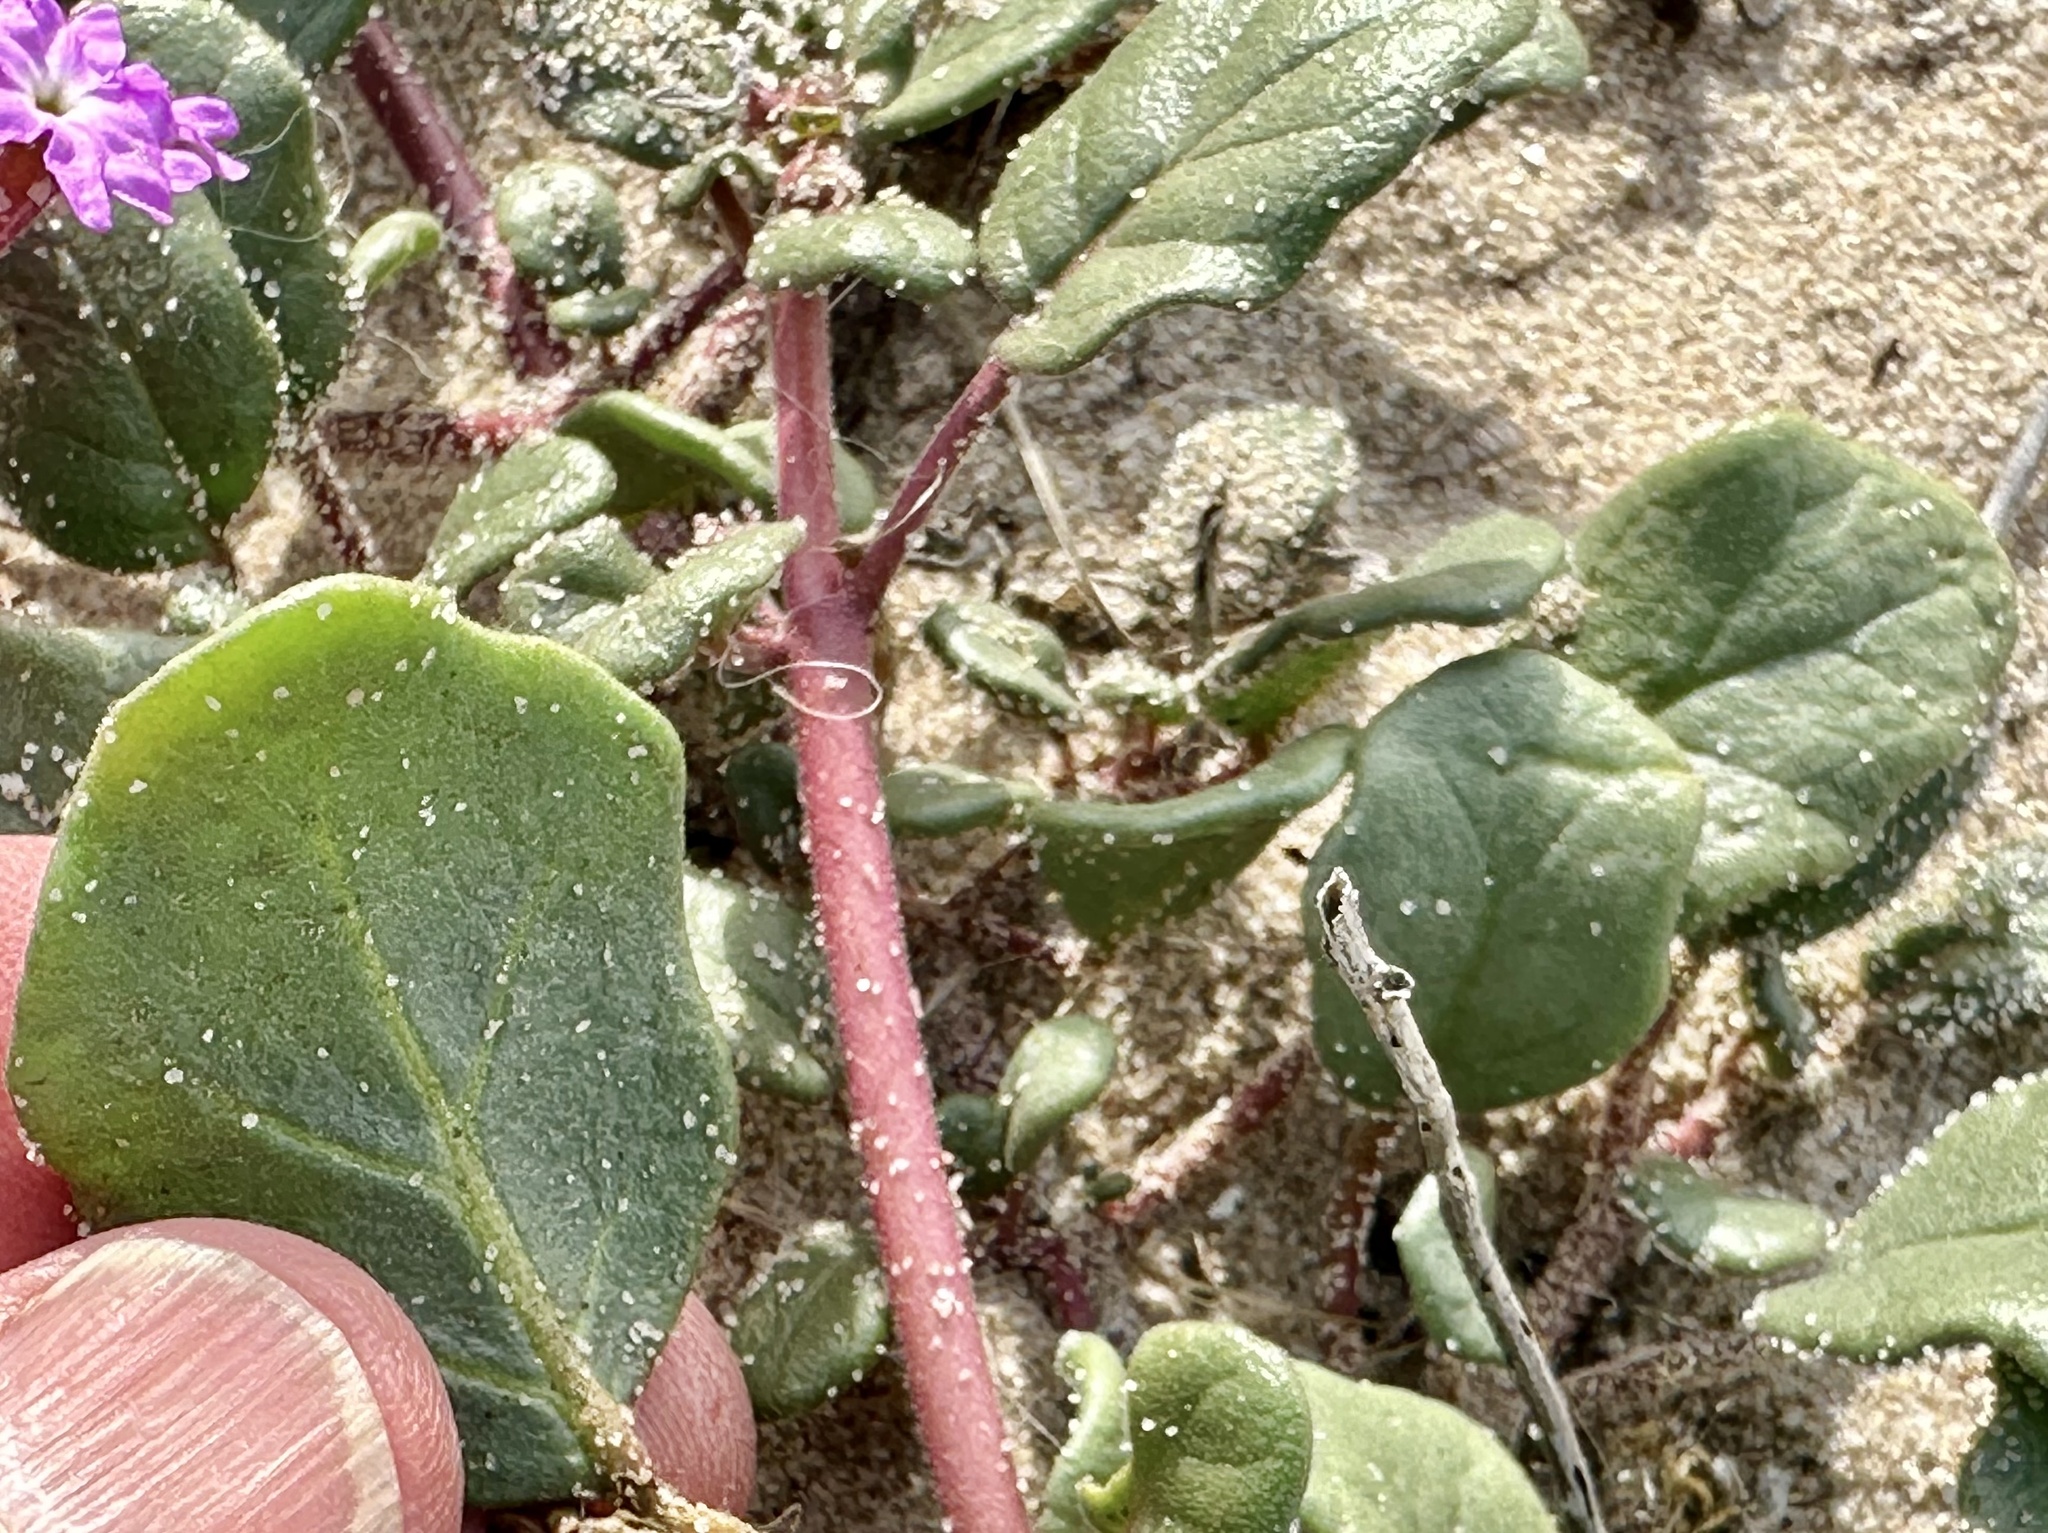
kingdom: Plantae
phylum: Tracheophyta
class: Magnoliopsida
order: Caryophyllales
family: Nyctaginaceae
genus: Abronia
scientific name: Abronia umbellata
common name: Sand-verbena
